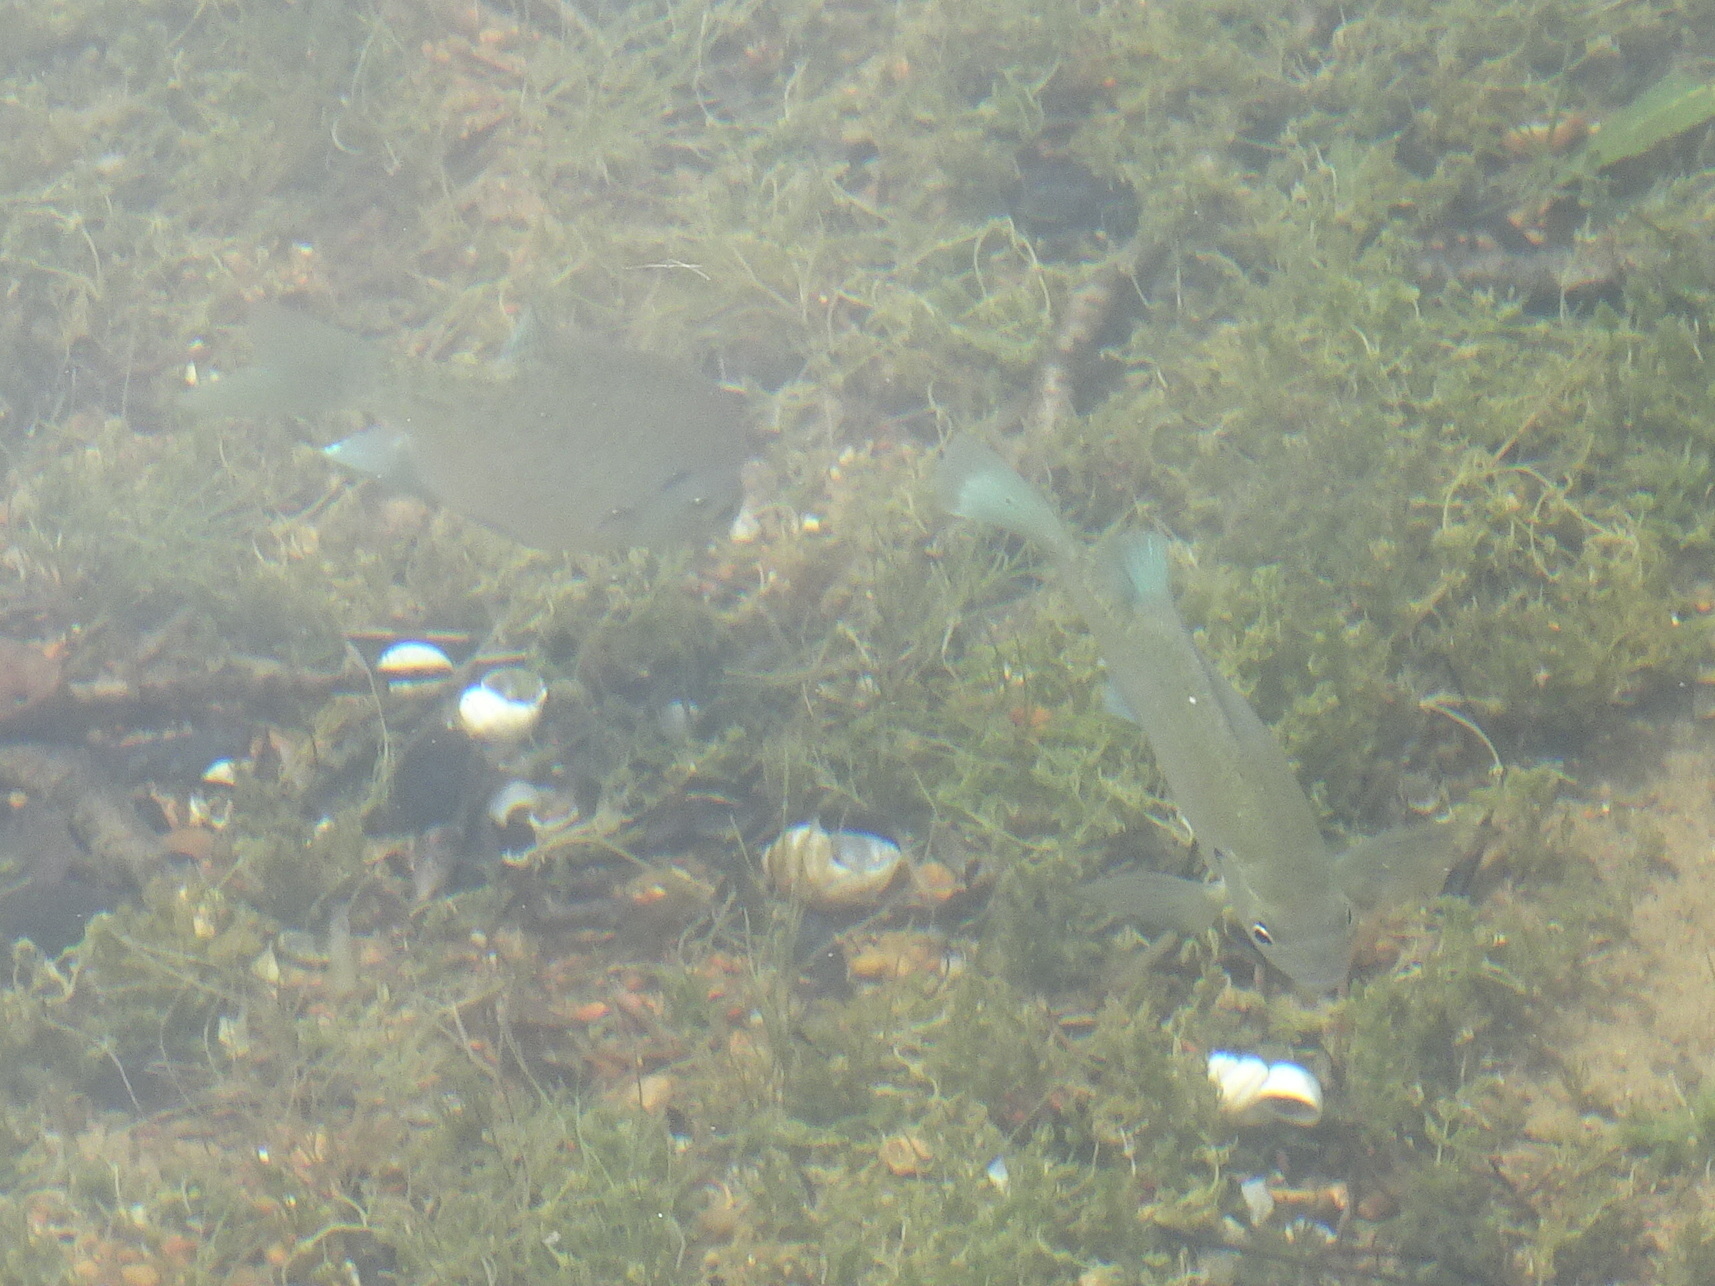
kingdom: Animalia
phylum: Chordata
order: Perciformes
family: Centrarchidae
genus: Lepomis
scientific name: Lepomis macrochirus
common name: Bluegill
